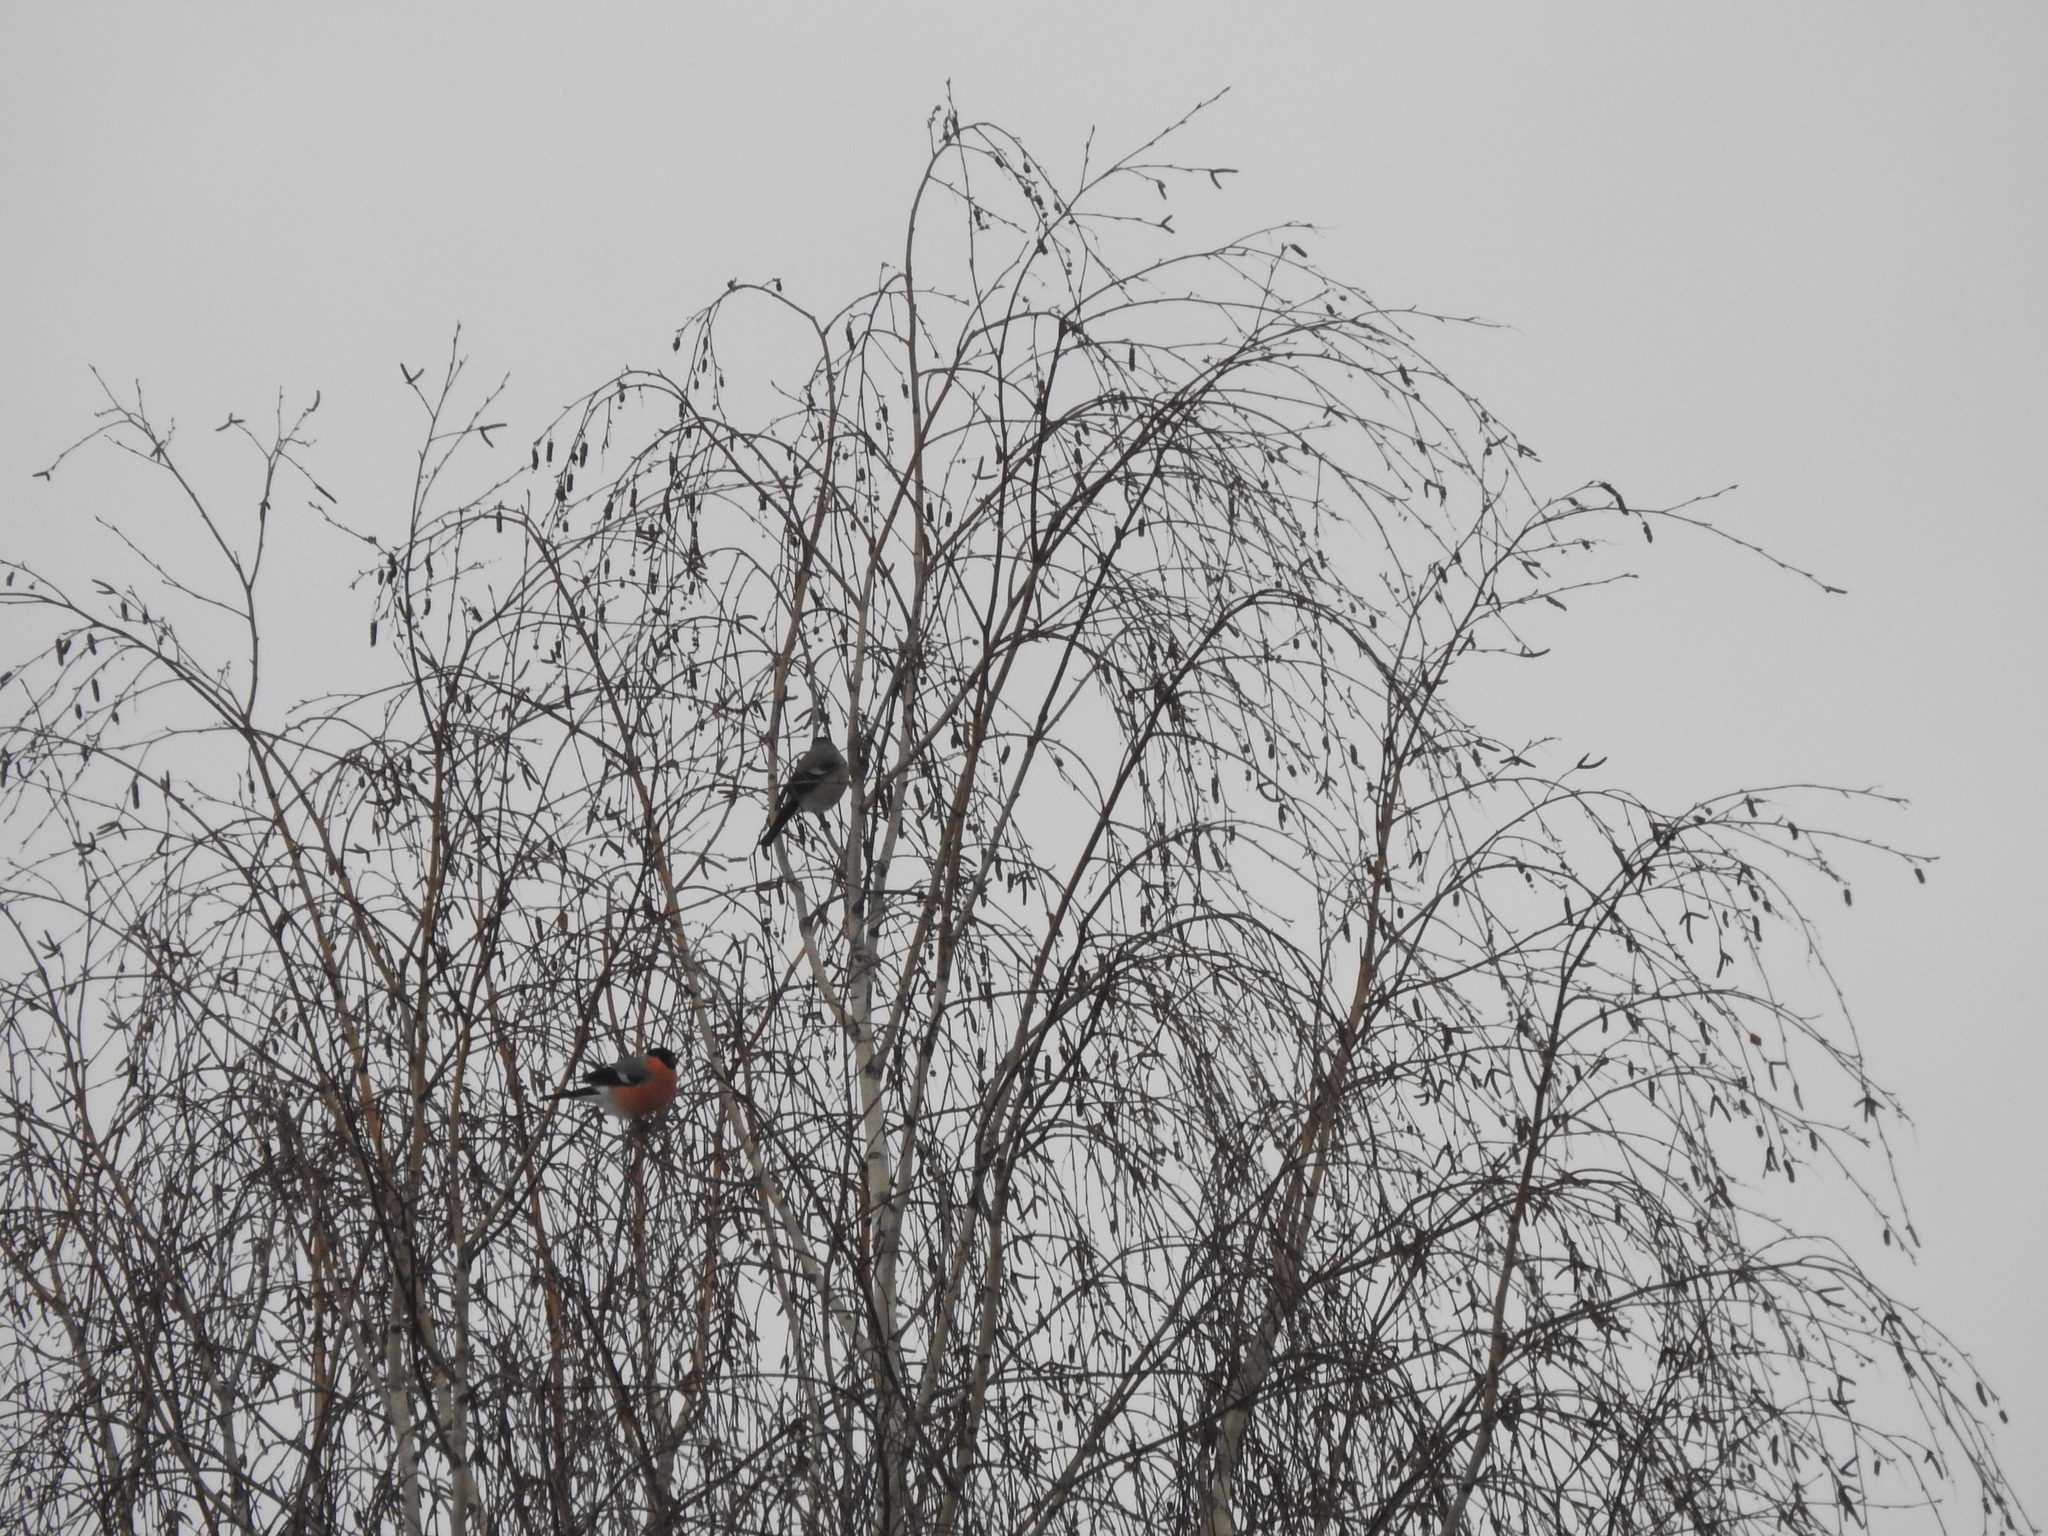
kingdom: Animalia
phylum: Chordata
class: Aves
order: Passeriformes
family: Fringillidae
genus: Pyrrhula
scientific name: Pyrrhula pyrrhula
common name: Eurasian bullfinch
